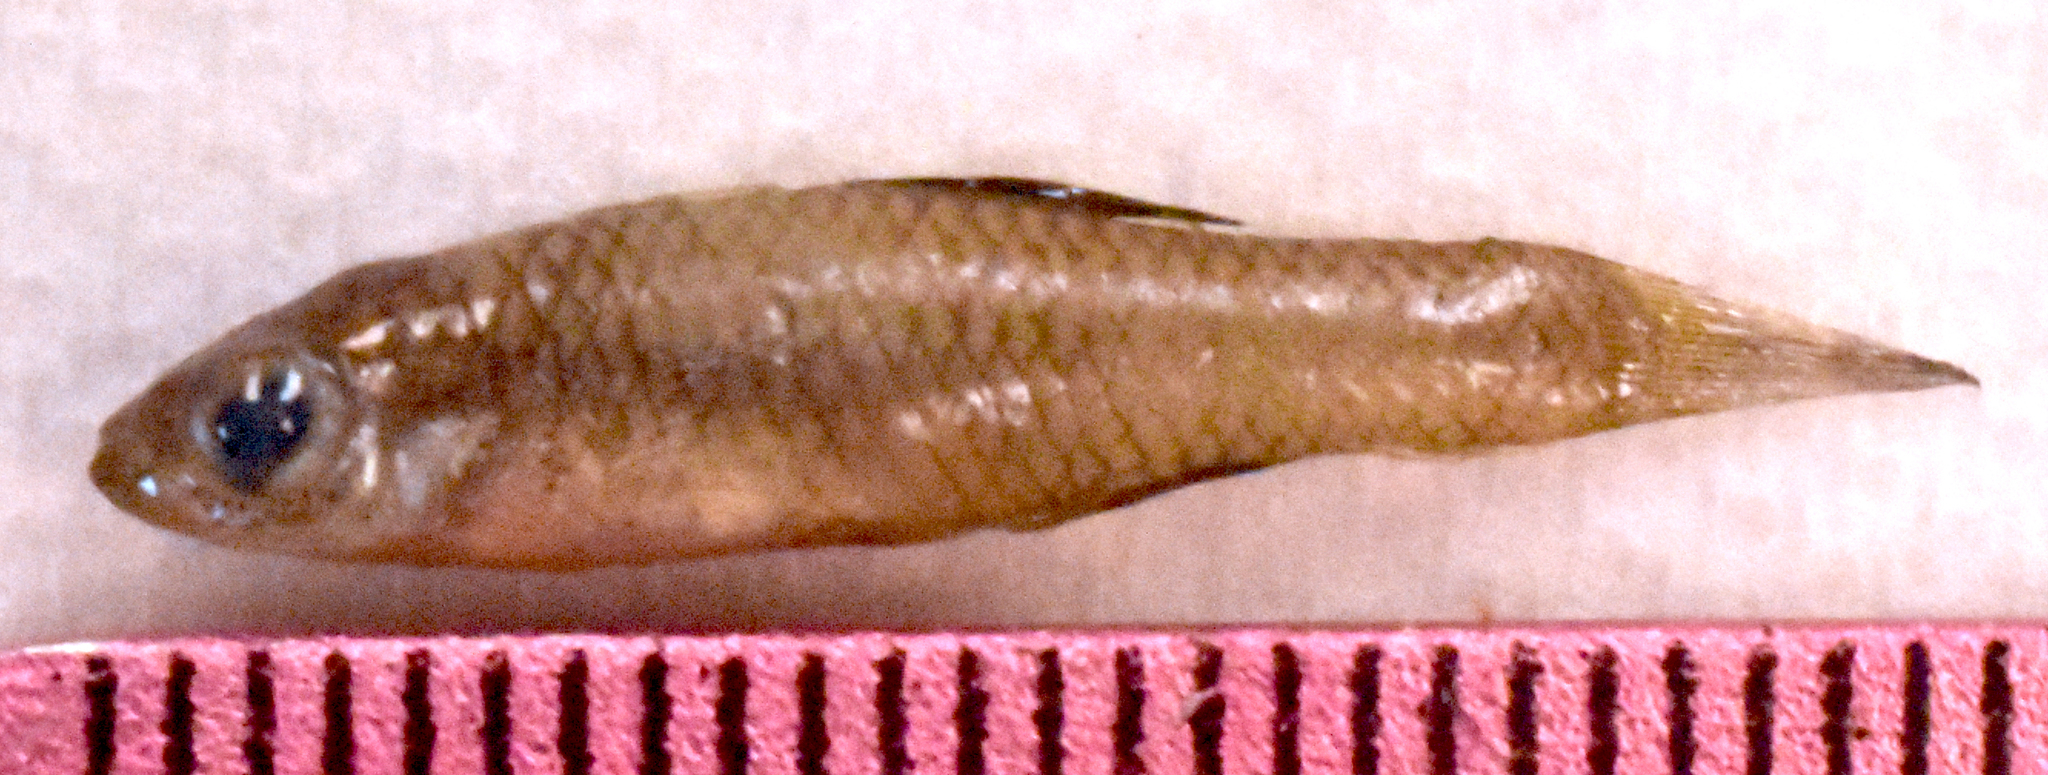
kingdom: Animalia
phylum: Chordata
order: Cyprinodontiformes
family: Fundulidae
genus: Lucania
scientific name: Lucania parva
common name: Rainwater killifish
